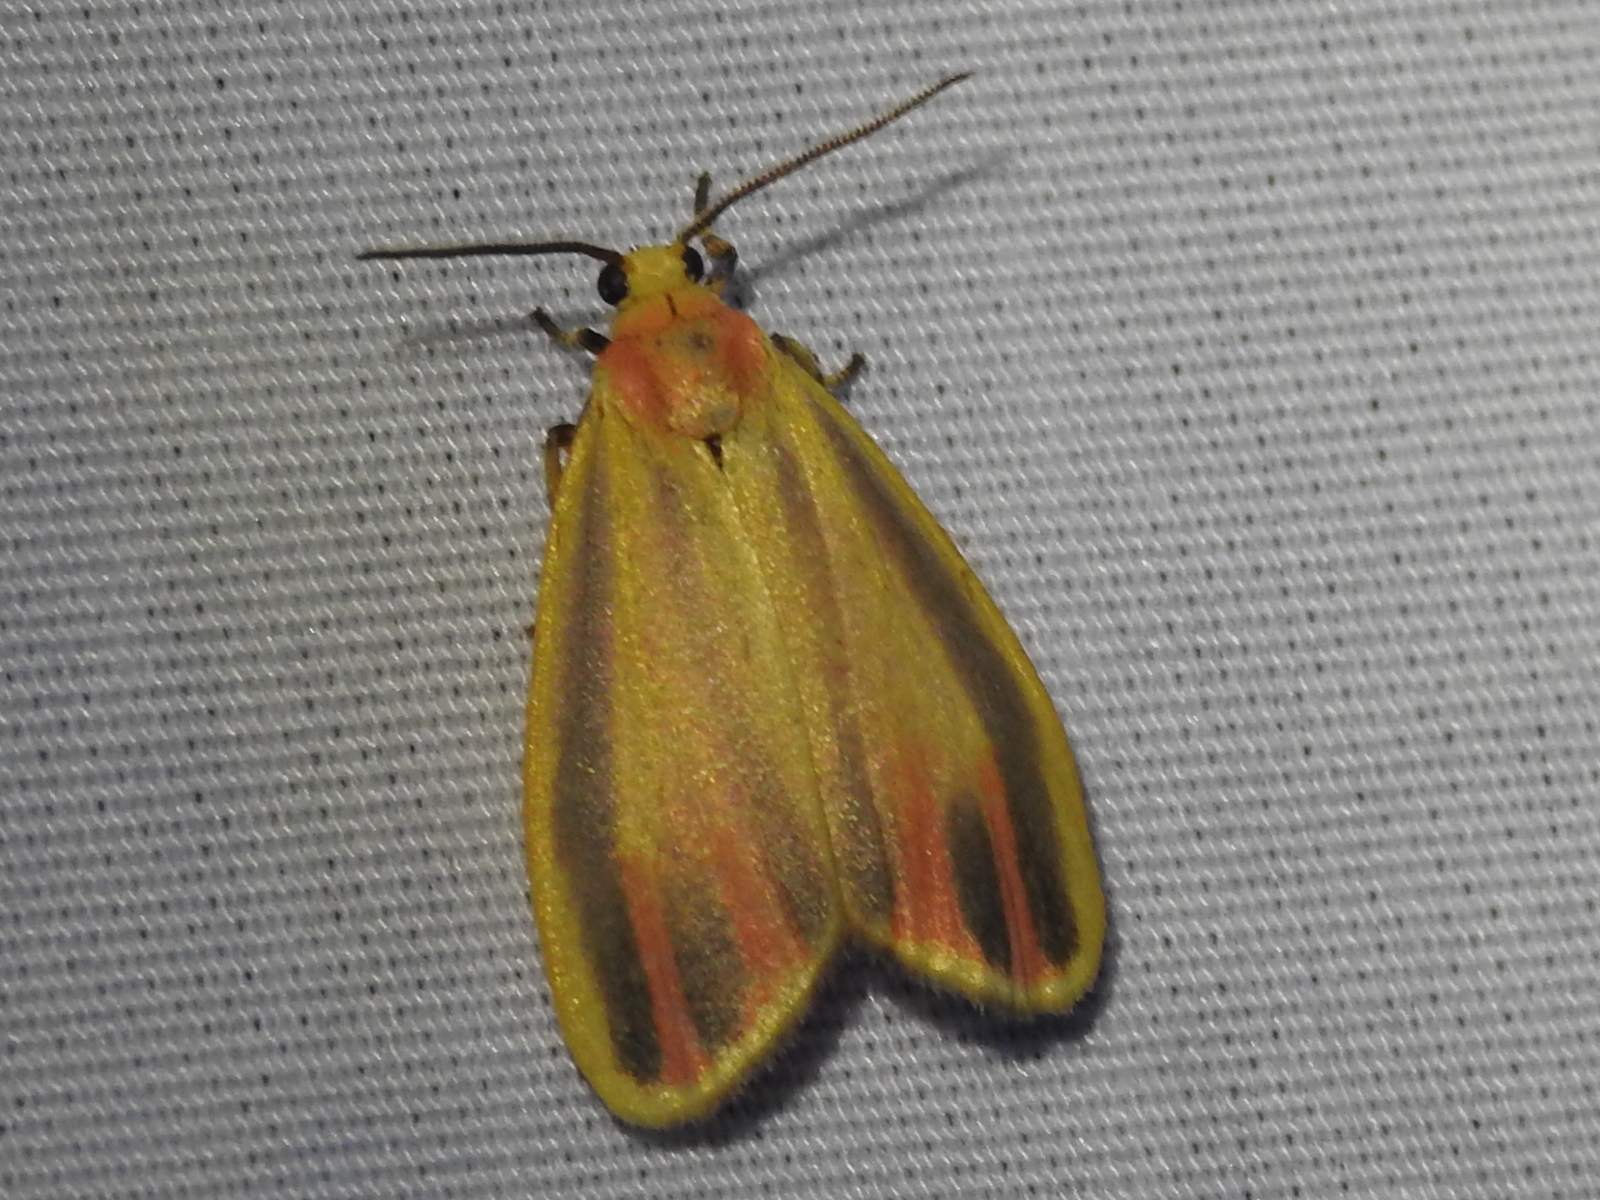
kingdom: Animalia
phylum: Arthropoda
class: Insecta
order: Lepidoptera
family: Erebidae
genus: Hypoprepia
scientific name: Hypoprepia fucosa
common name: Painted lichen moth
